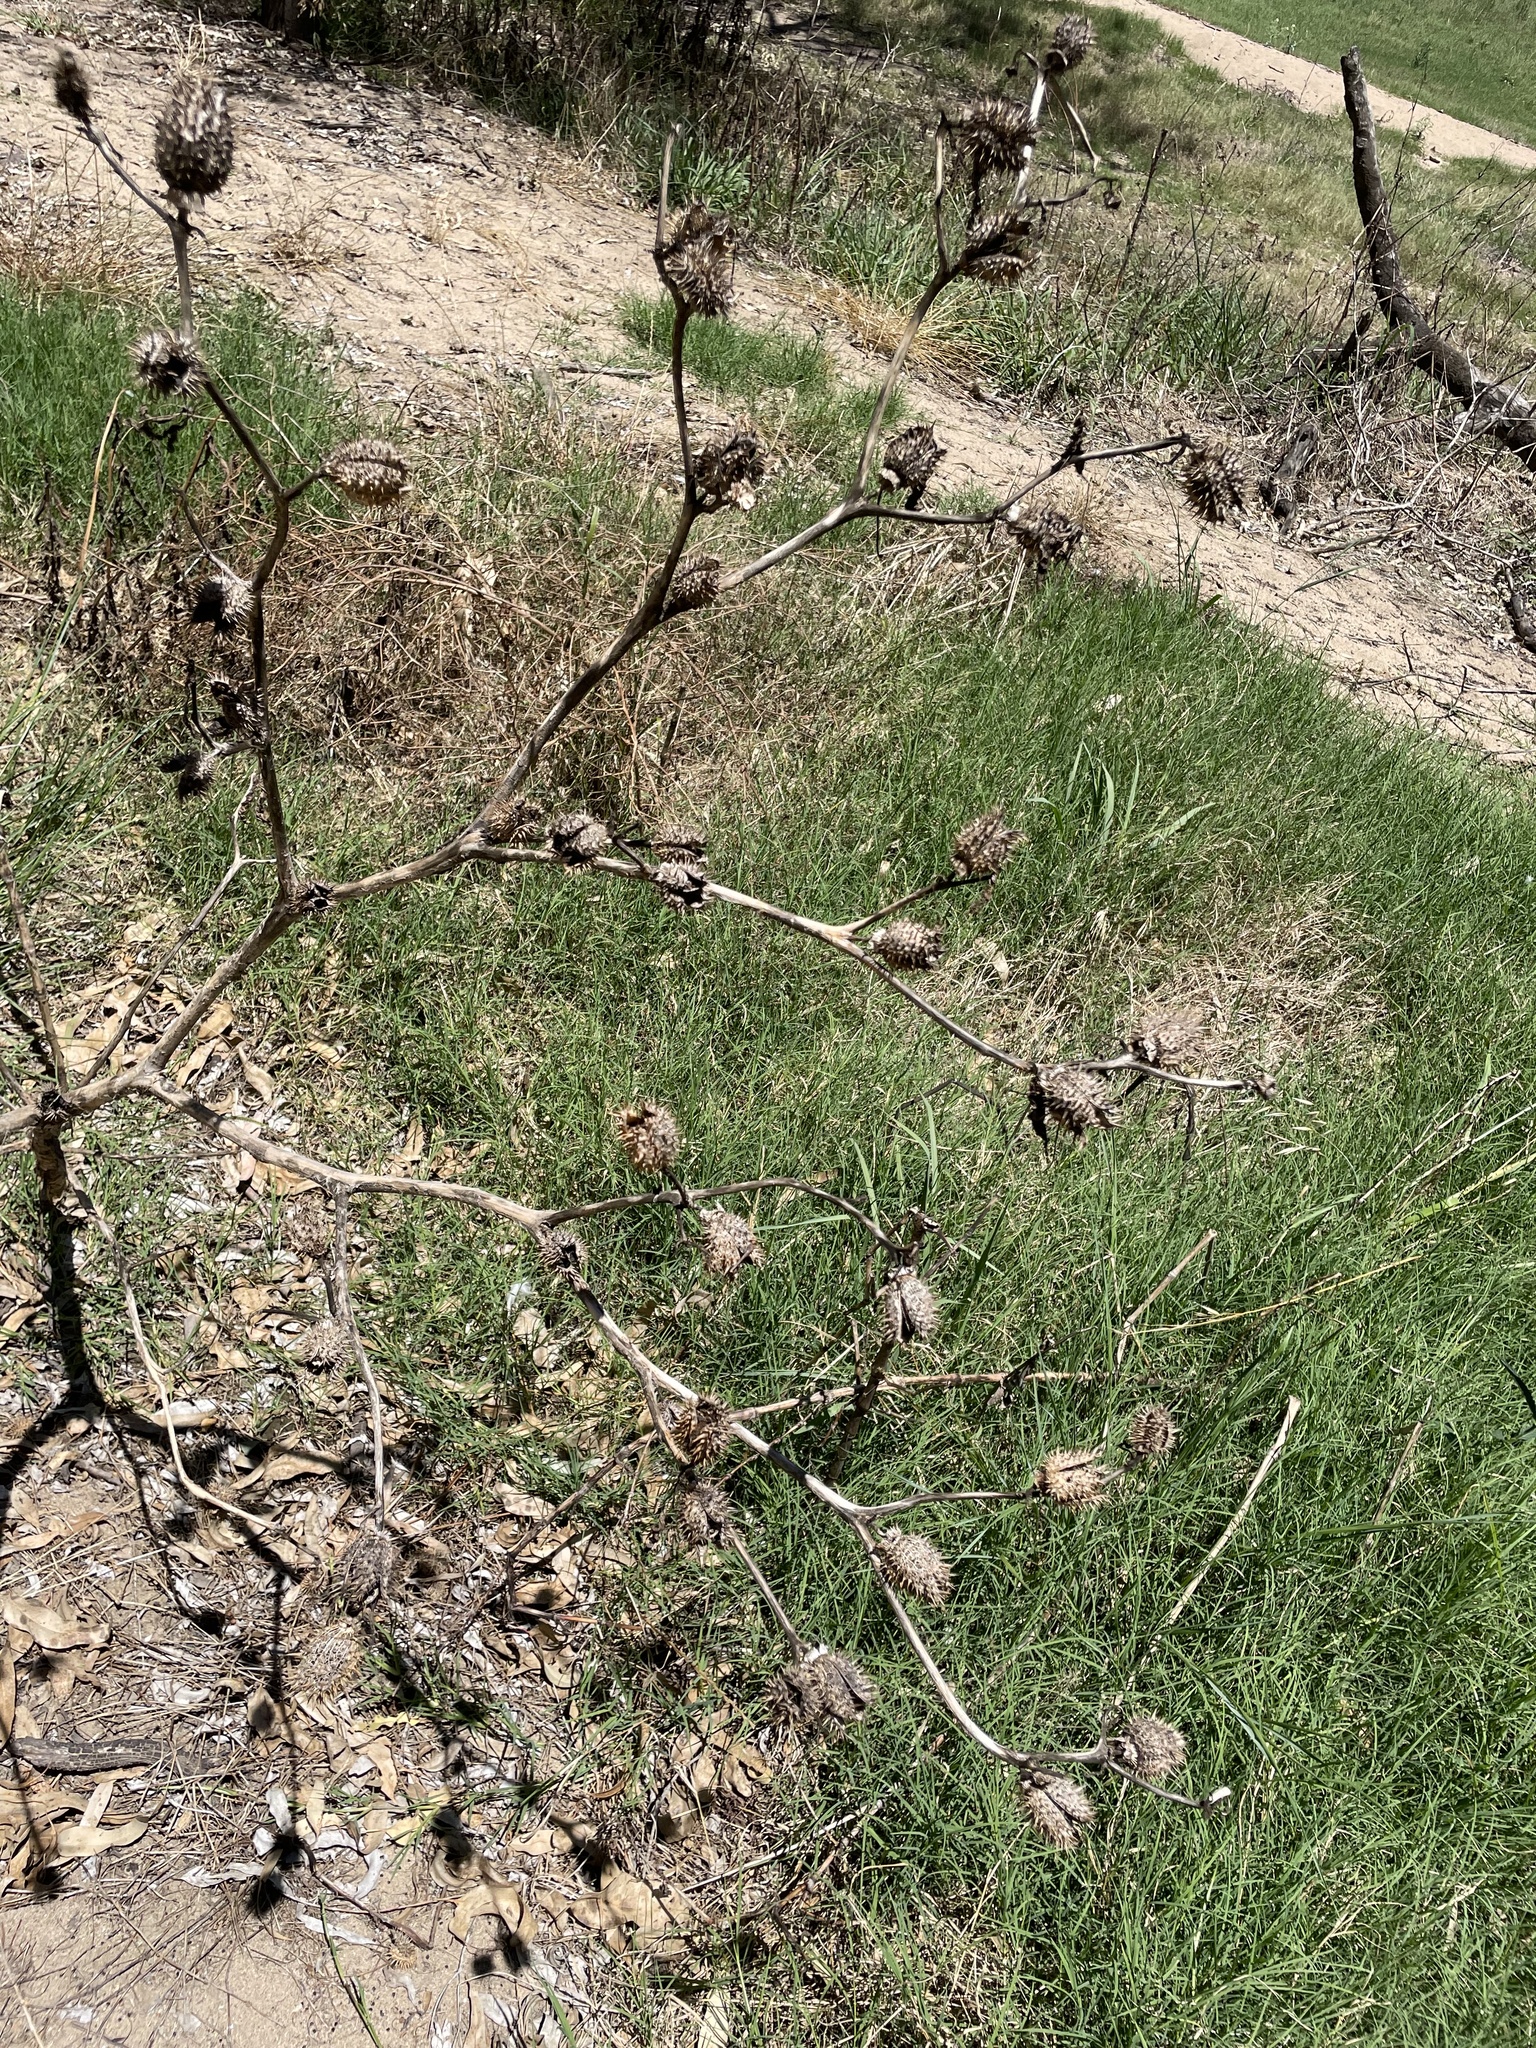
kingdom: Plantae
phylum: Tracheophyta
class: Magnoliopsida
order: Solanales
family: Solanaceae
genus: Datura
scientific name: Datura stramonium
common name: Thorn-apple
